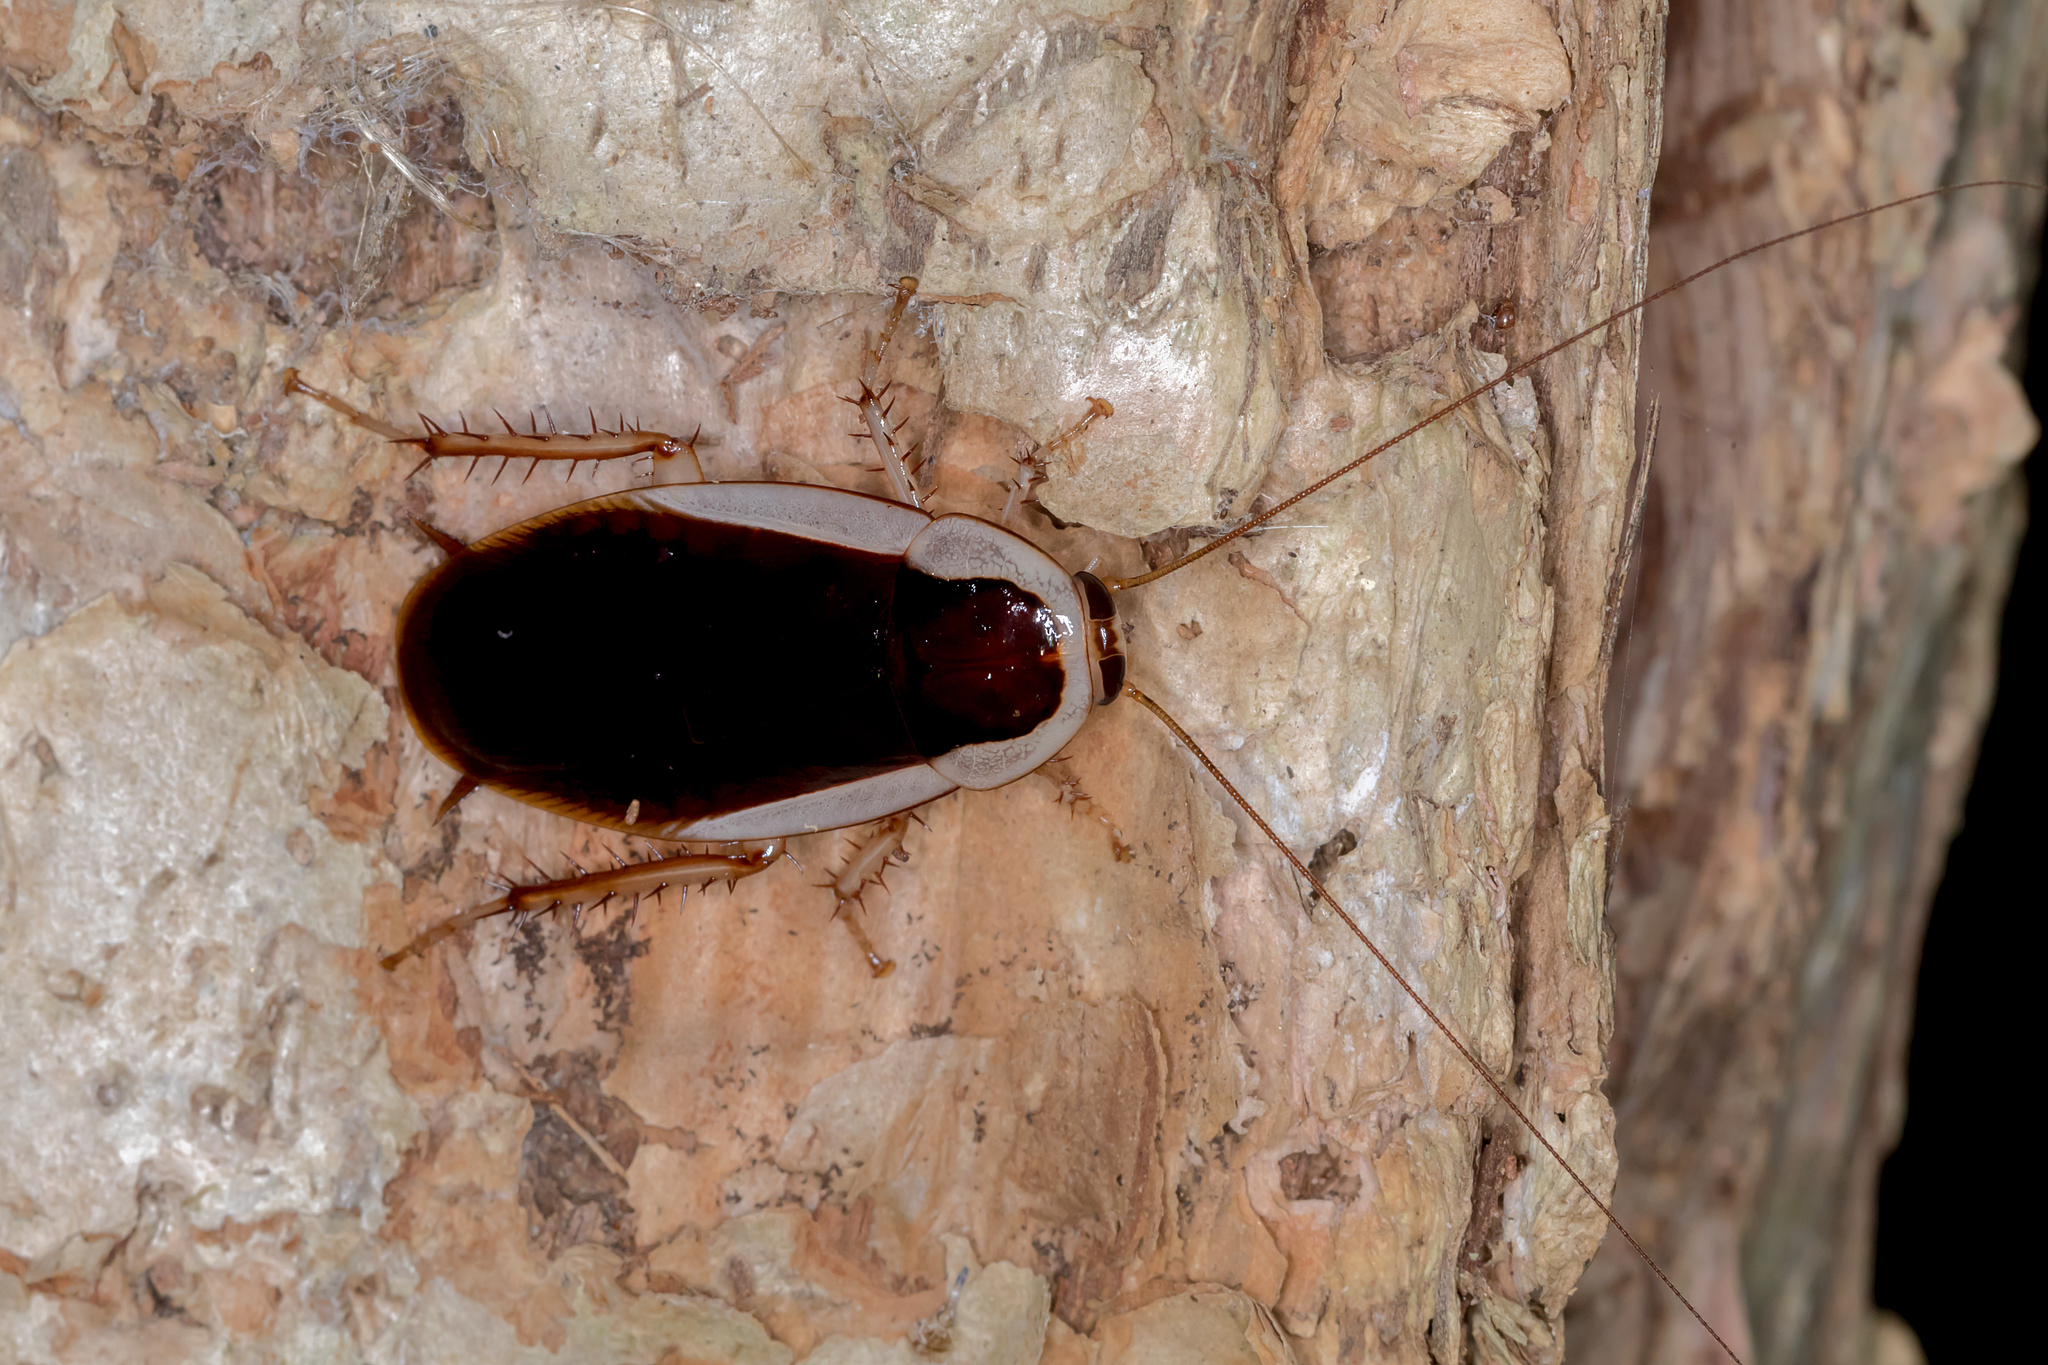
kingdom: Animalia
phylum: Arthropoda
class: Insecta
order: Blattodea
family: Blattidae
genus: Methana
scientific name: Methana marginalis
